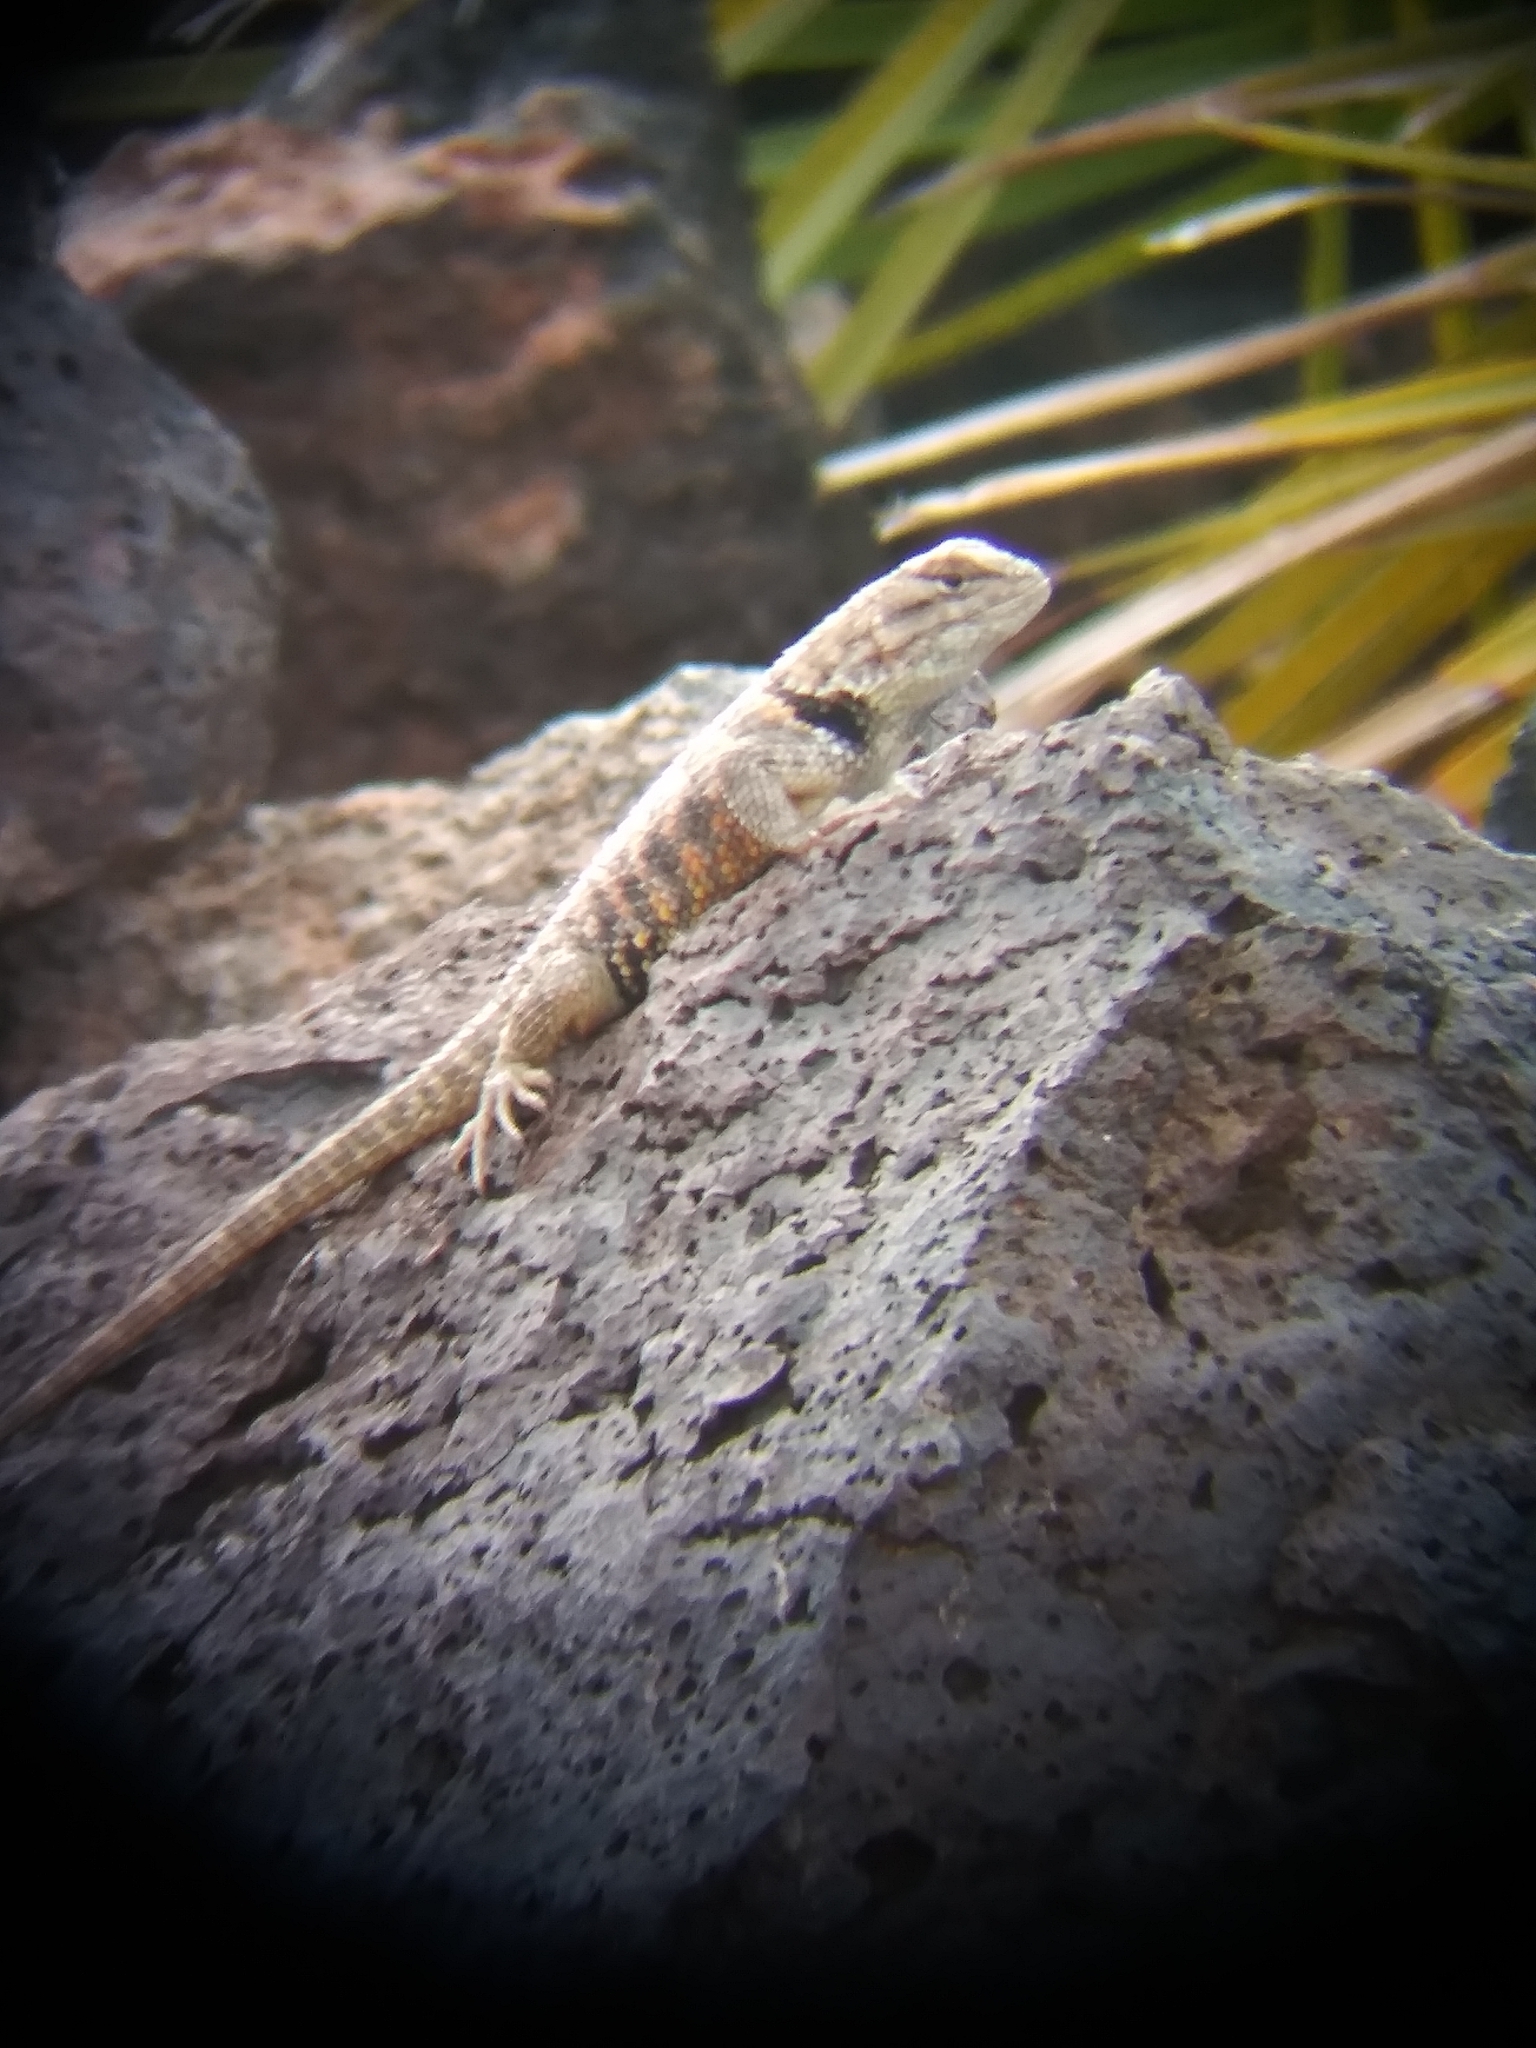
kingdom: Animalia
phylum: Chordata
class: Squamata
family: Phrynosomatidae
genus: Sceloporus
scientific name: Sceloporus uniformis
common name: Yellow-backed spiny lizard
